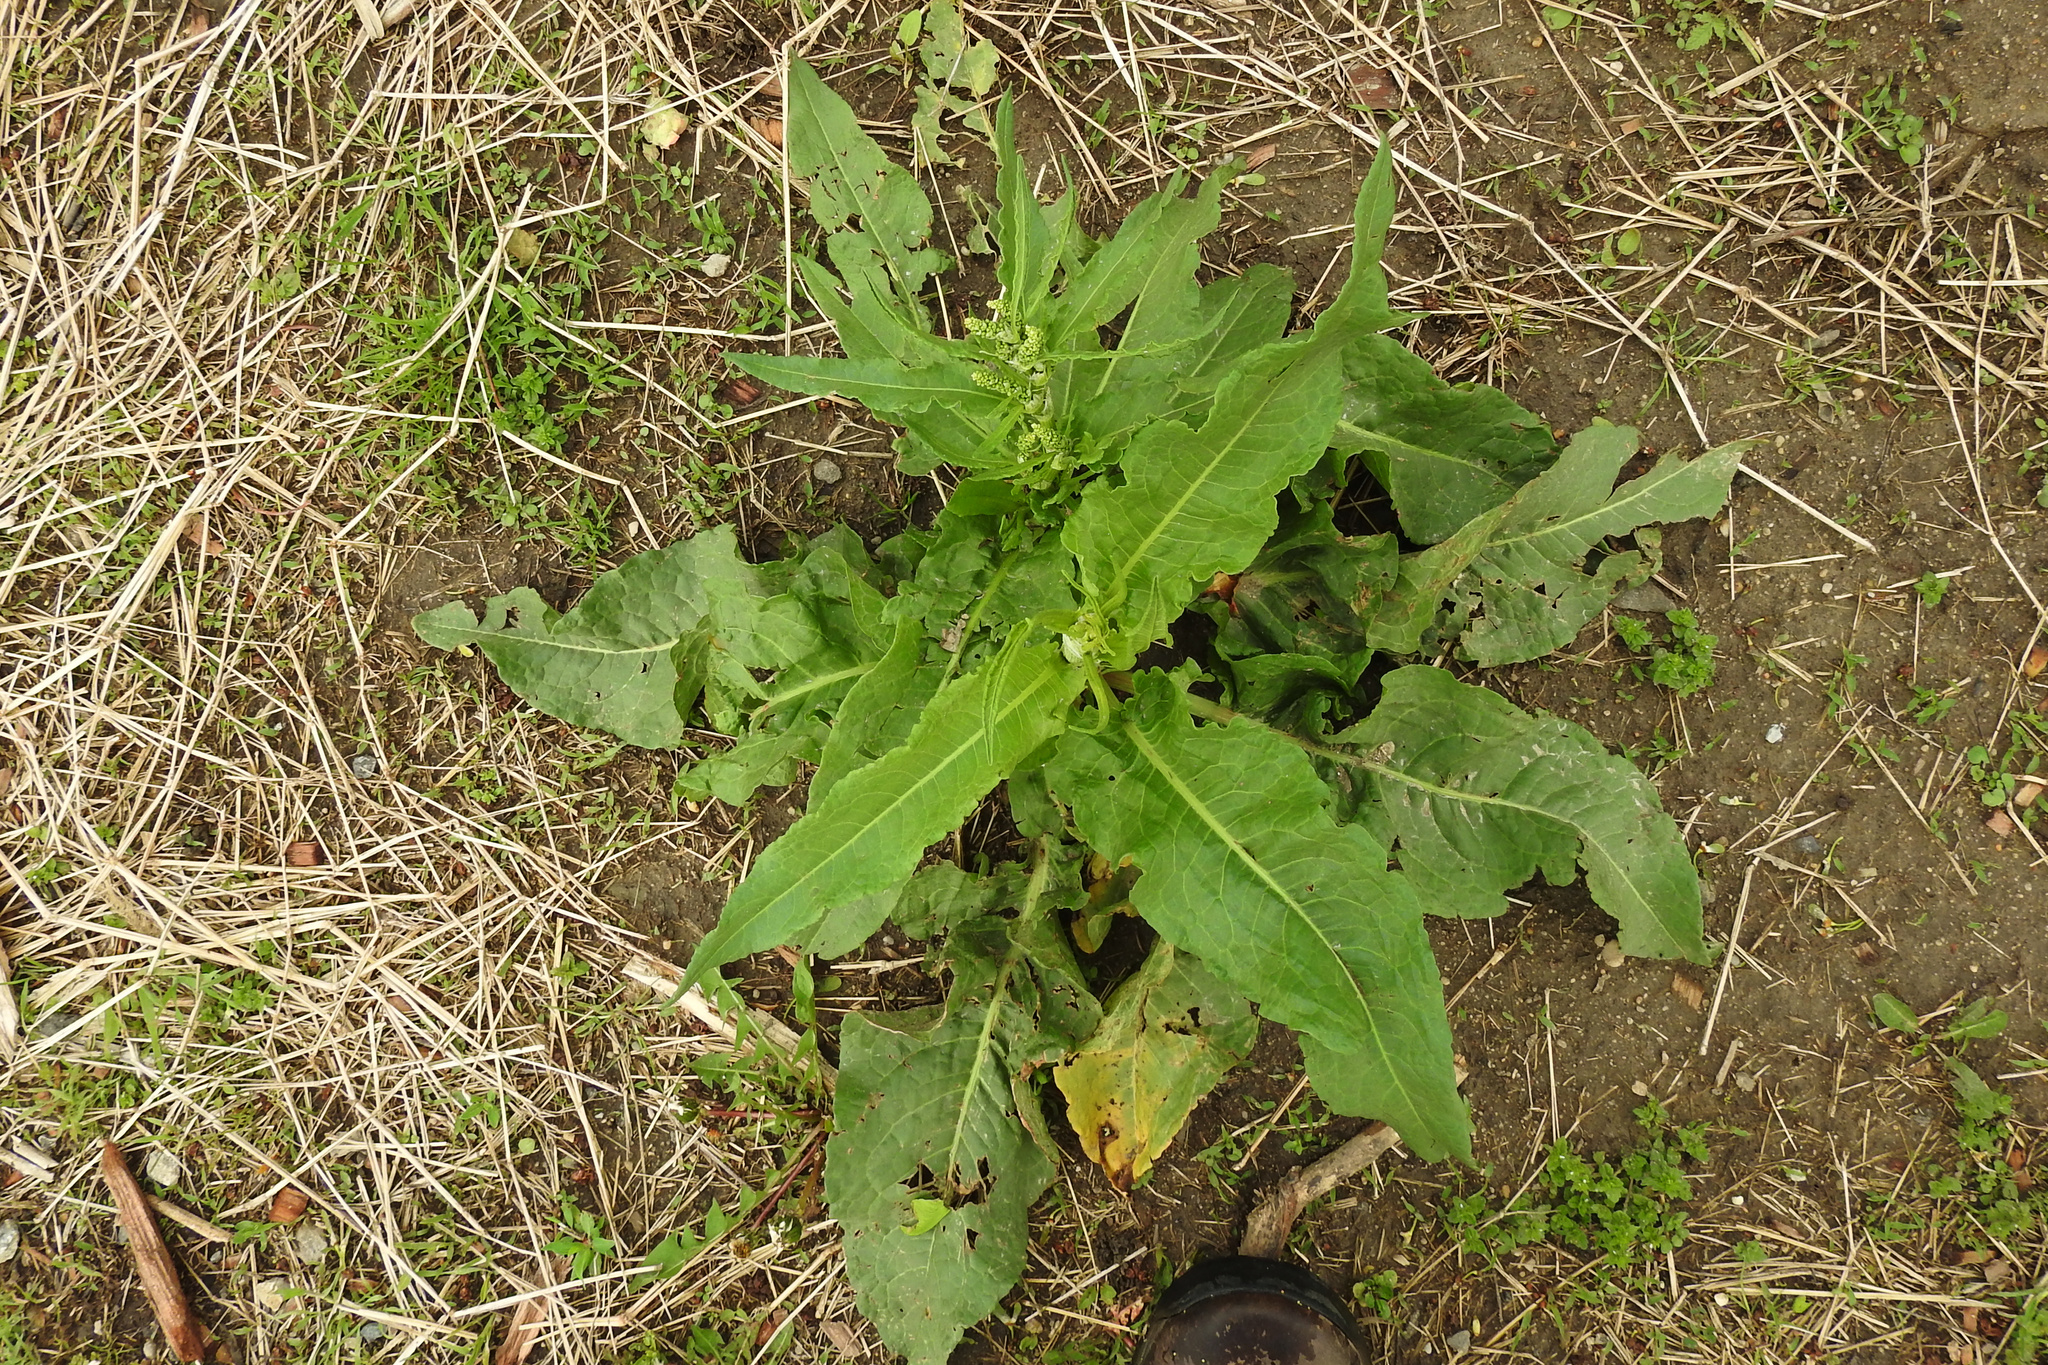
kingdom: Plantae
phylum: Tracheophyta
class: Magnoliopsida
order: Caryophyllales
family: Polygonaceae
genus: Rumex
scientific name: Rumex crispus
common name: Curled dock
